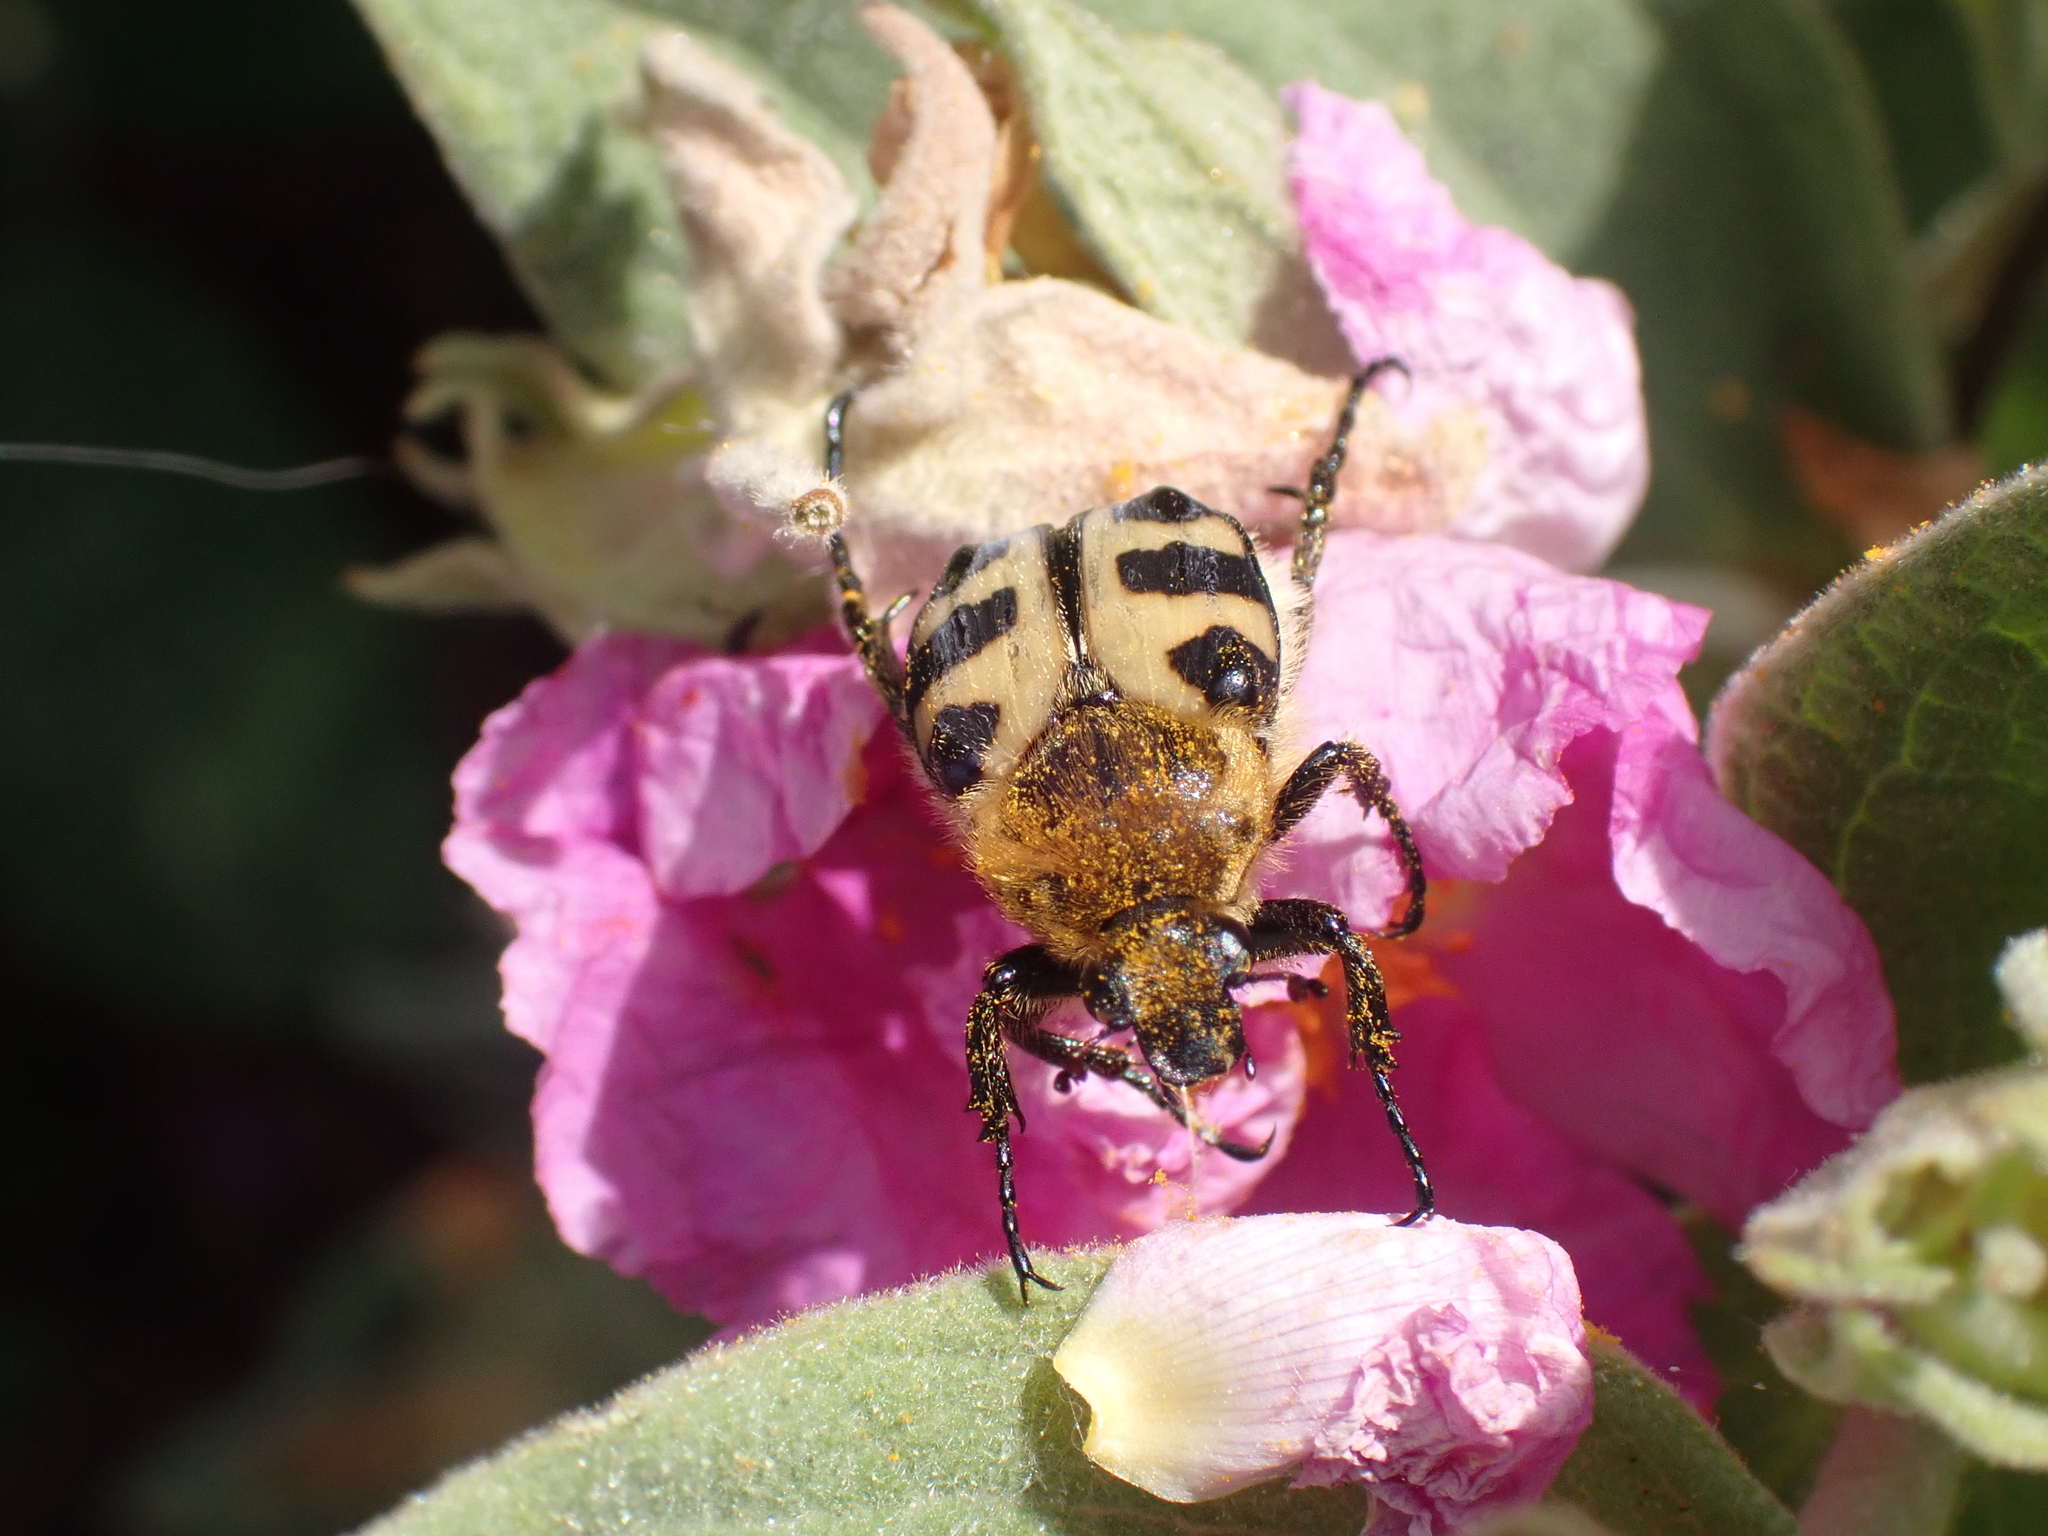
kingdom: Animalia
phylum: Arthropoda
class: Insecta
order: Coleoptera
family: Scarabaeidae
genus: Trichius
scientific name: Trichius gallicus
